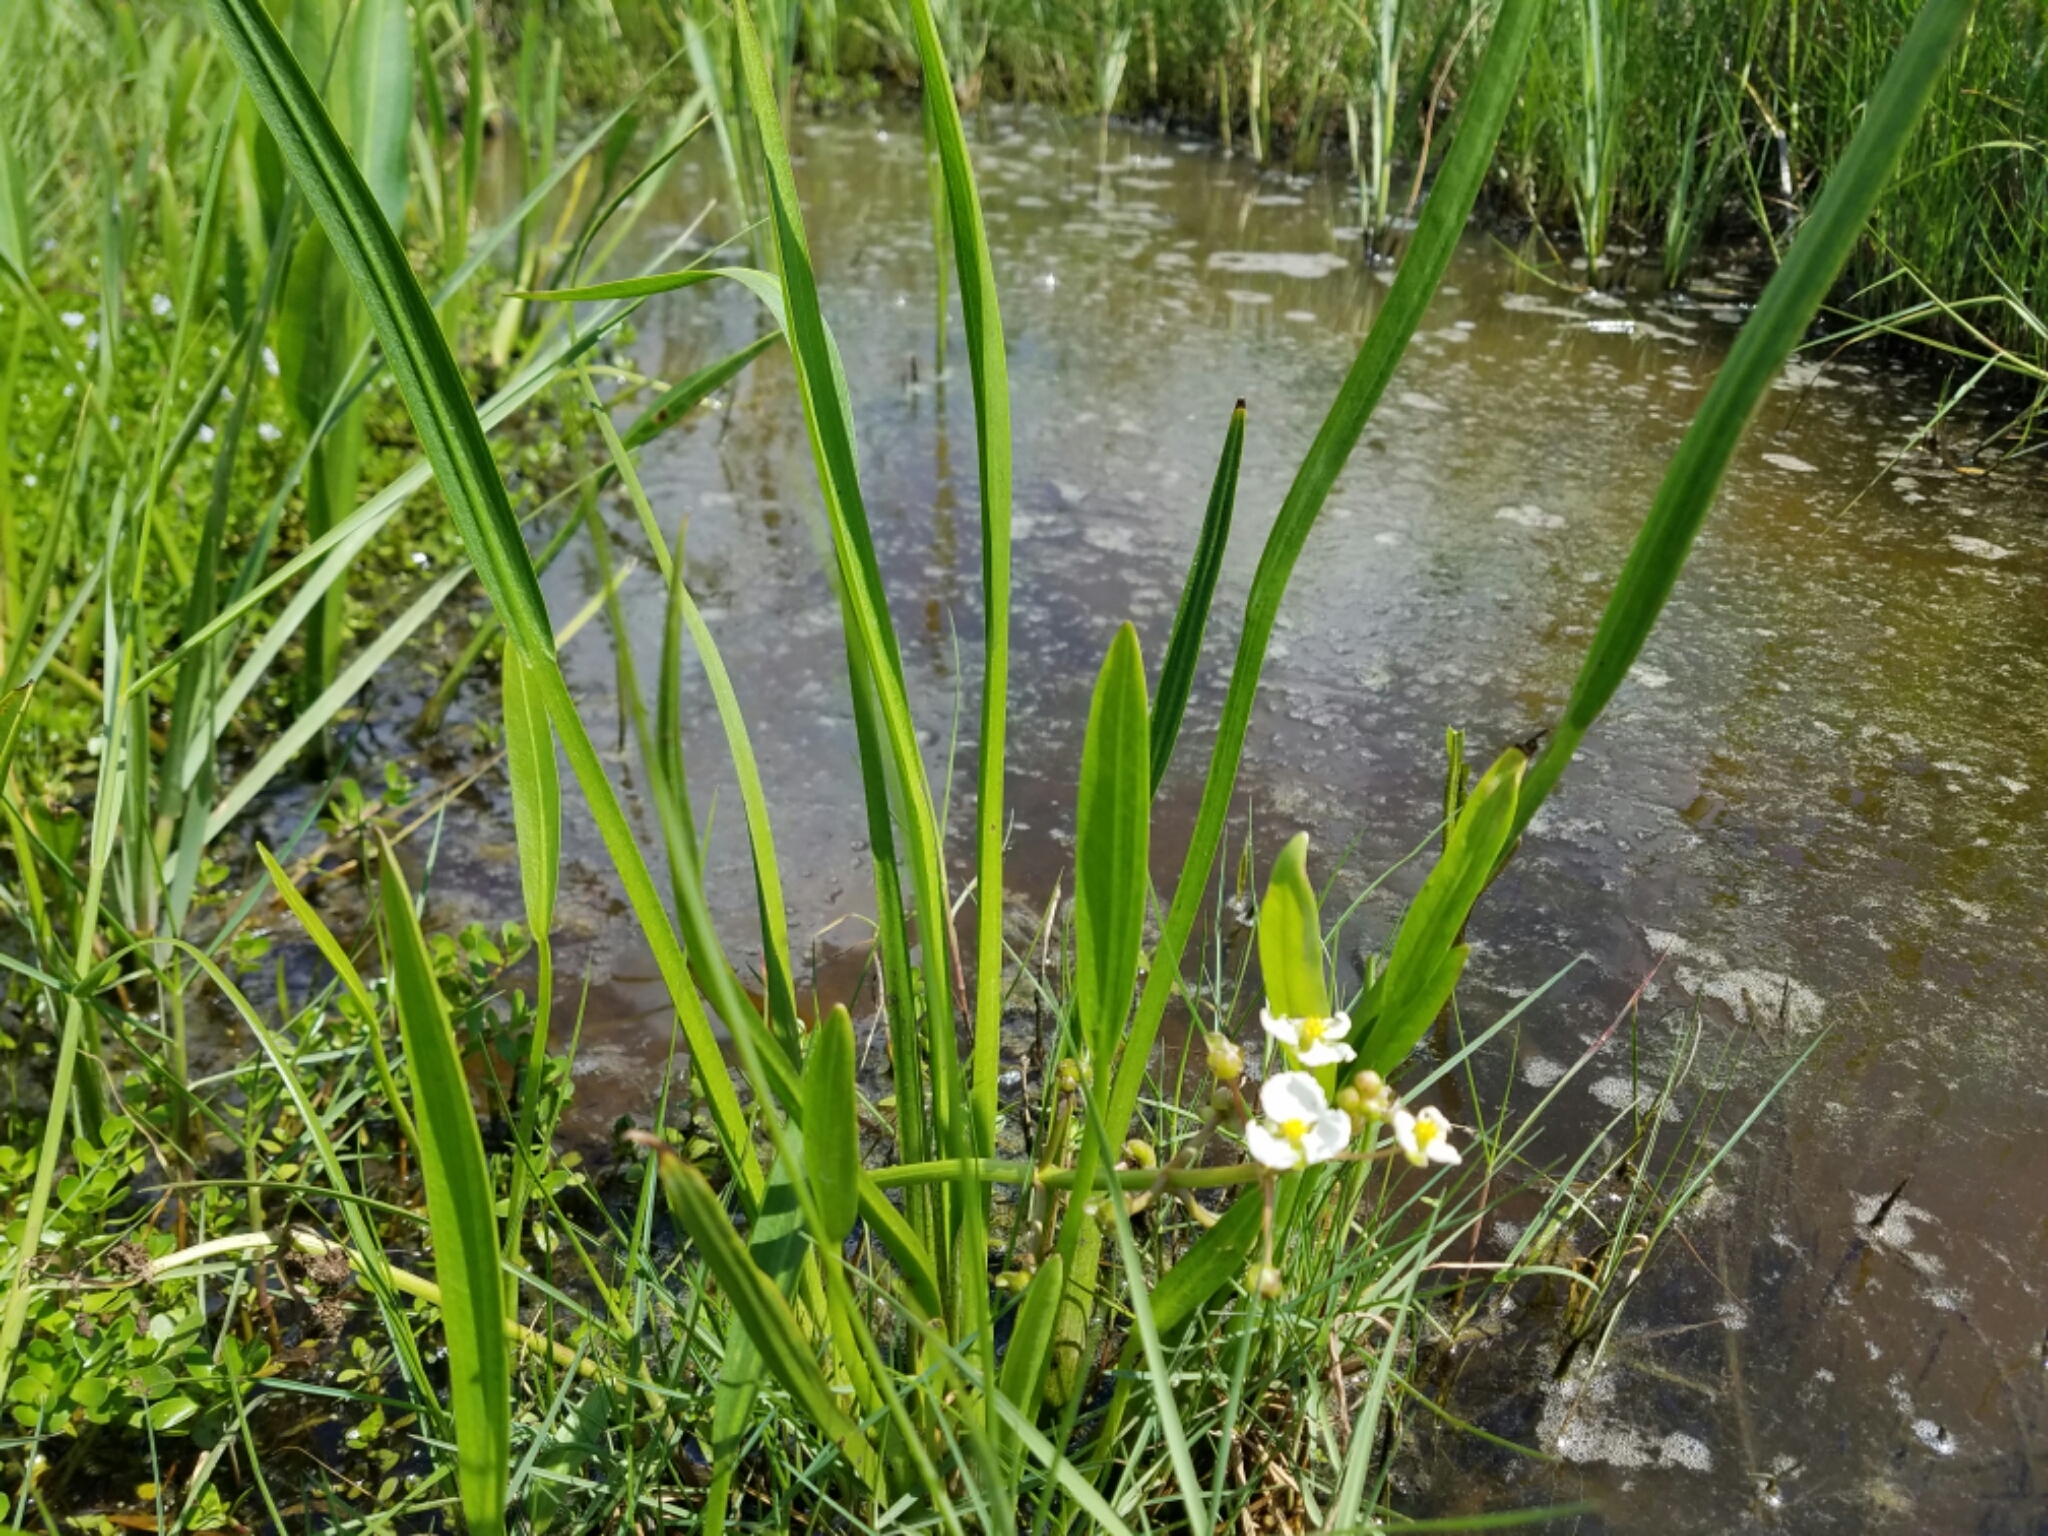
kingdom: Plantae
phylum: Tracheophyta
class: Liliopsida
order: Alismatales
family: Alismataceae
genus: Sagittaria
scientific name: Sagittaria platyphylla
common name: Broad-leaf arrowhead
